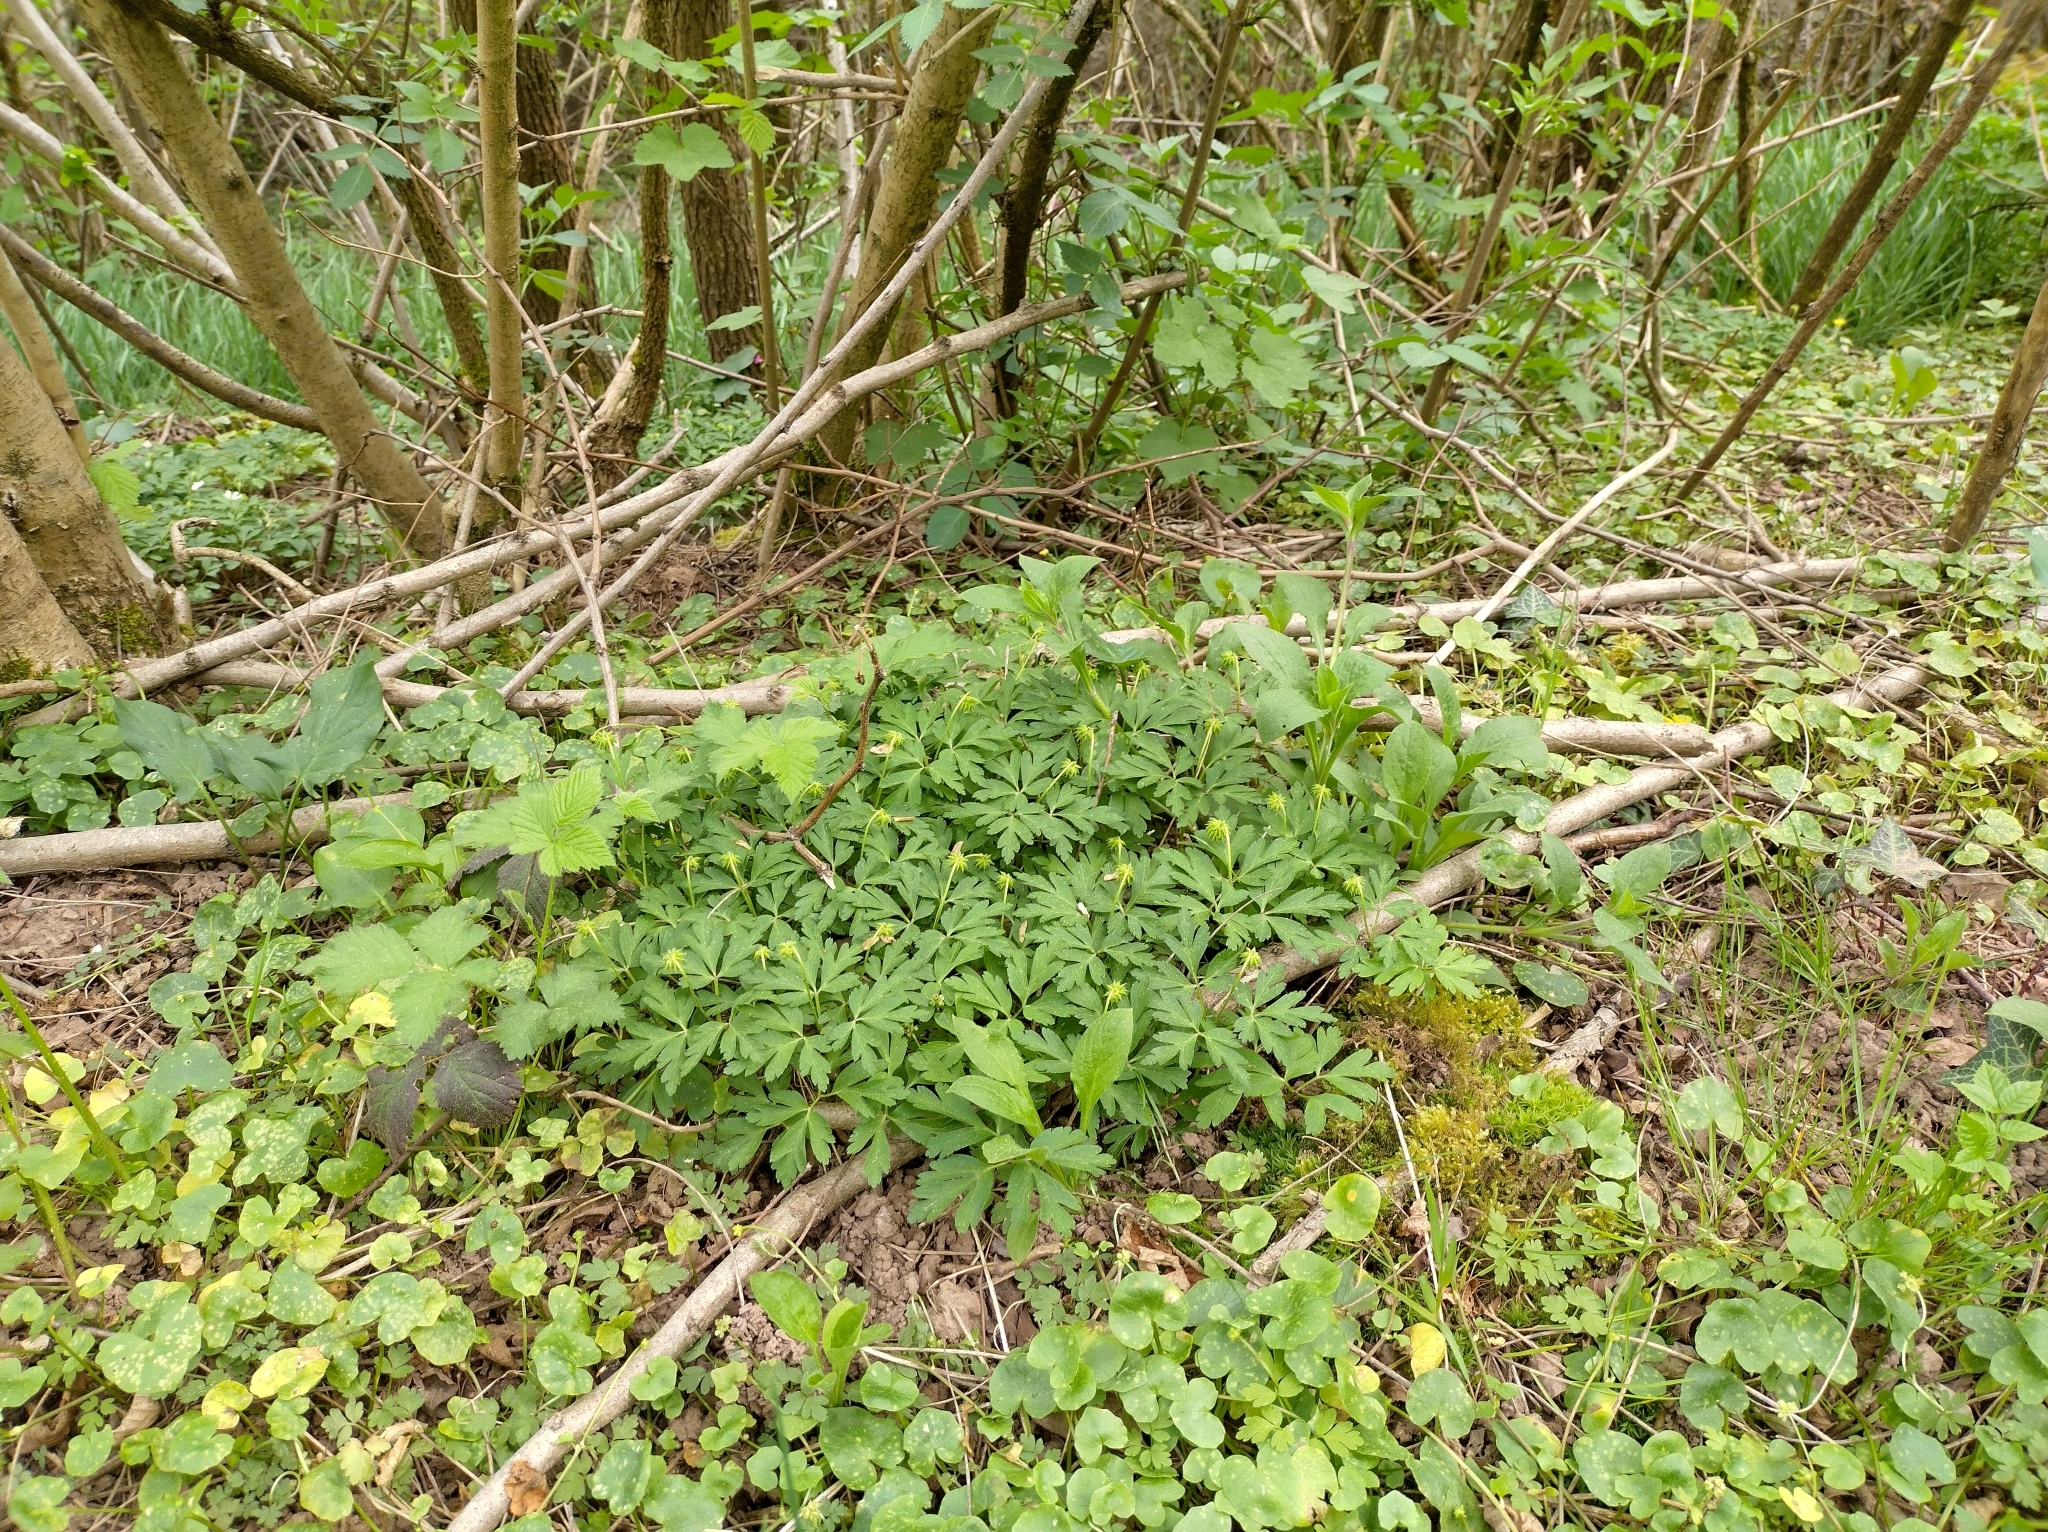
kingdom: Plantae
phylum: Tracheophyta
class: Magnoliopsida
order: Ranunculales
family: Ranunculaceae
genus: Anemone
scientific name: Anemone nemorosa
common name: Wood anemone
